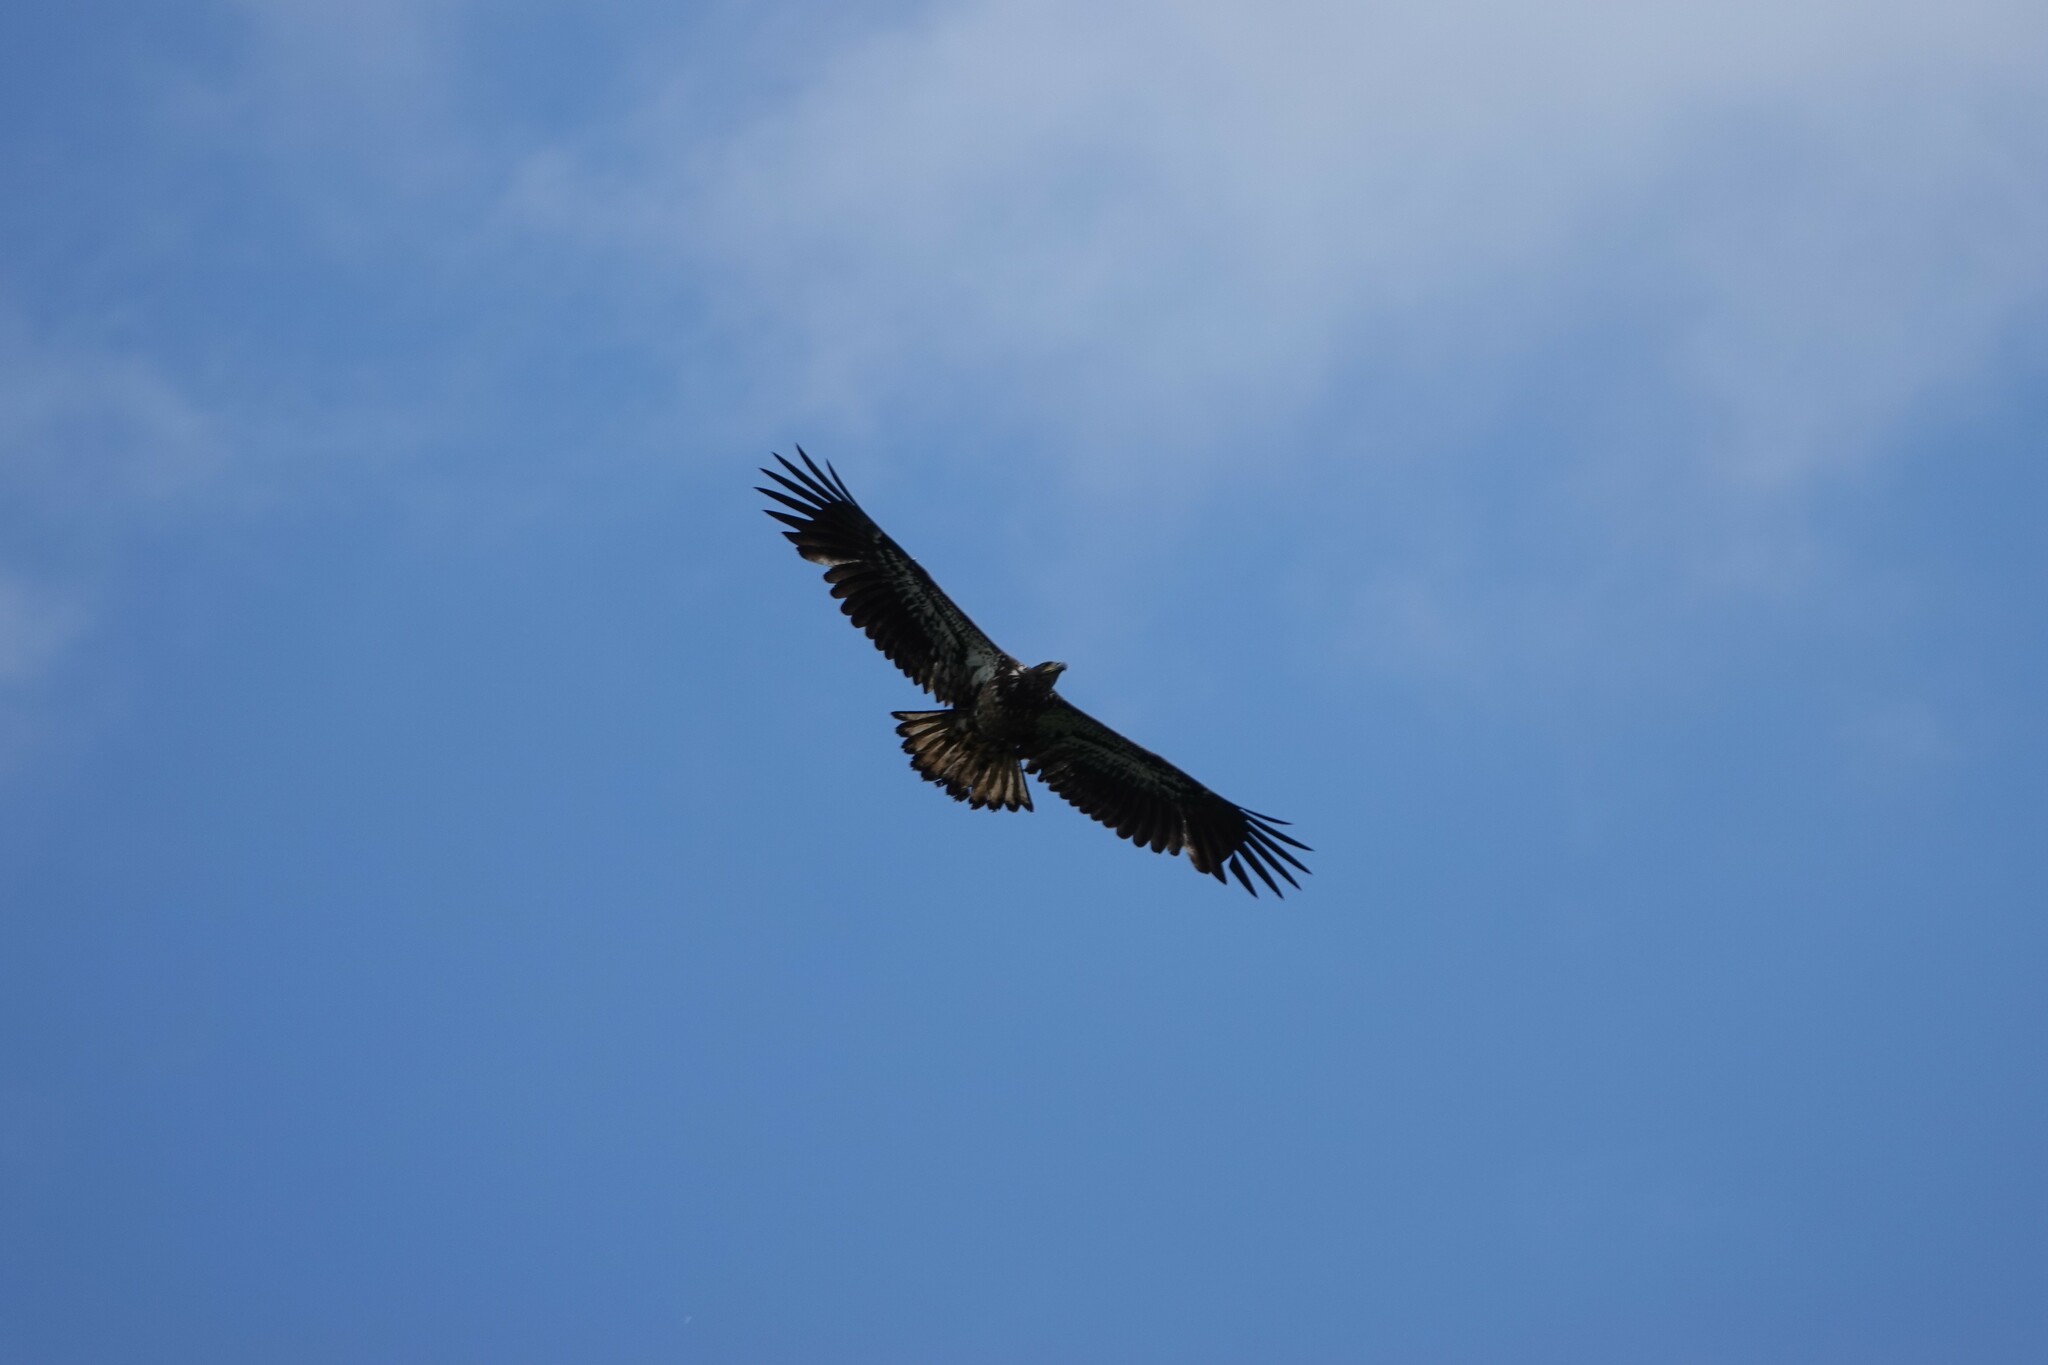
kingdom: Animalia
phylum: Chordata
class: Aves
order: Accipitriformes
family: Accipitridae
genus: Haliaeetus
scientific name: Haliaeetus leucocephalus
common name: Bald eagle
